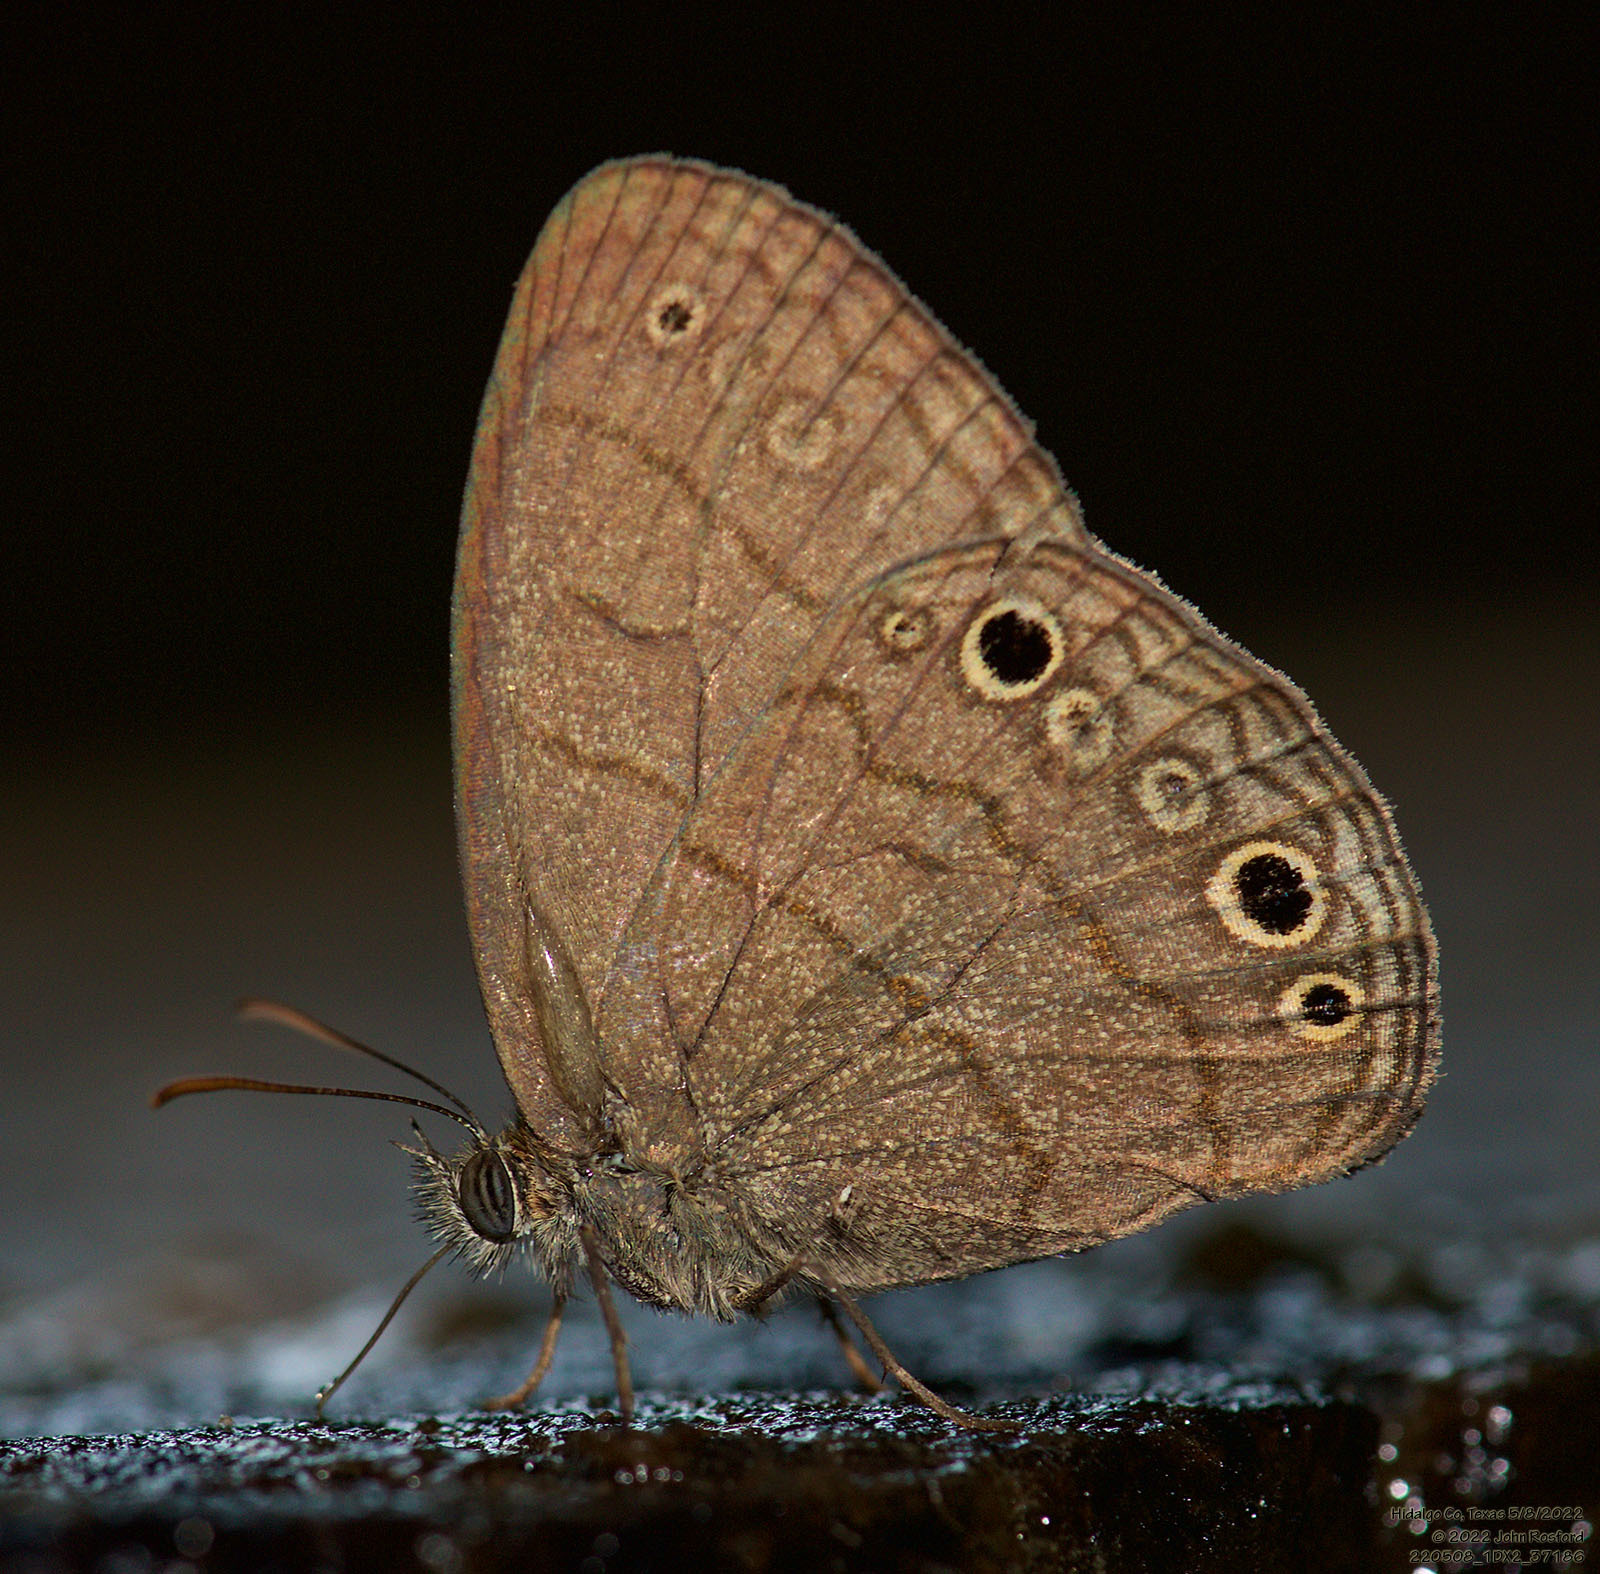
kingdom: Animalia
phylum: Arthropoda
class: Insecta
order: Lepidoptera
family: Nymphalidae
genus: Hermeuptychia
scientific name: Hermeuptychia hermybius
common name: South texas satyr
